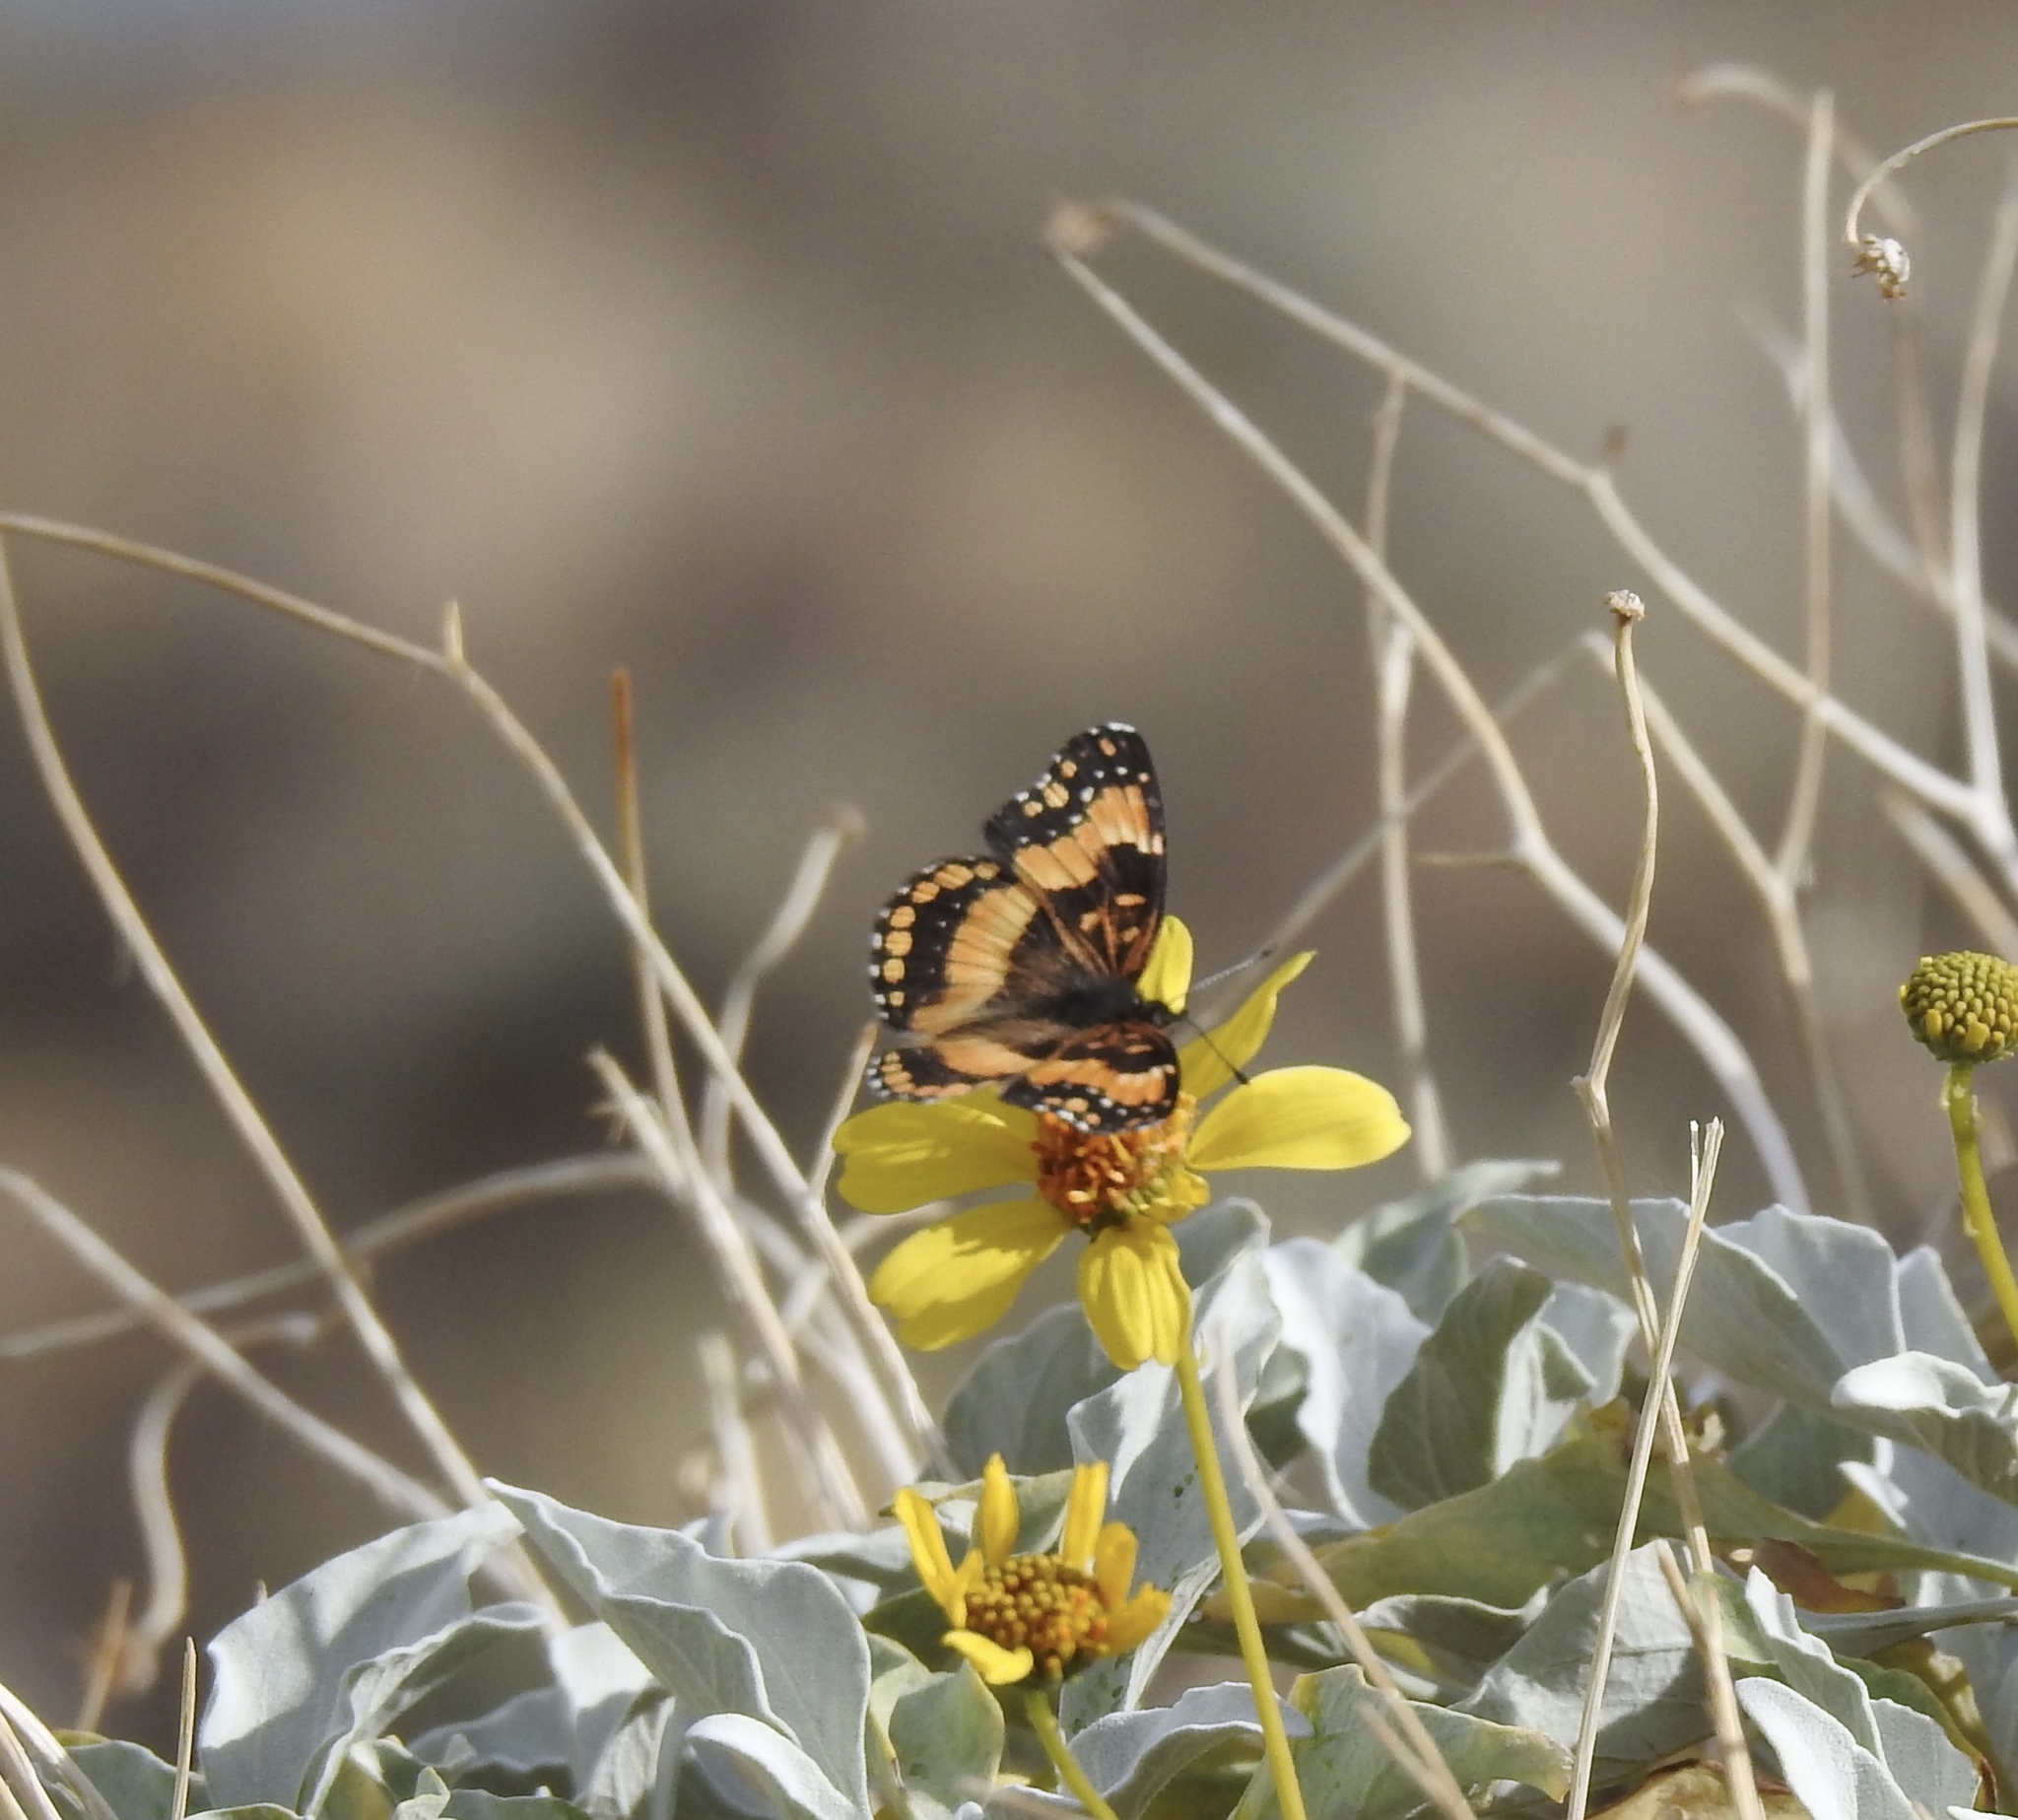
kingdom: Animalia
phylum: Arthropoda
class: Insecta
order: Lepidoptera
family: Nymphalidae
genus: Chlosyne
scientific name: Chlosyne californica
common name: California patch
